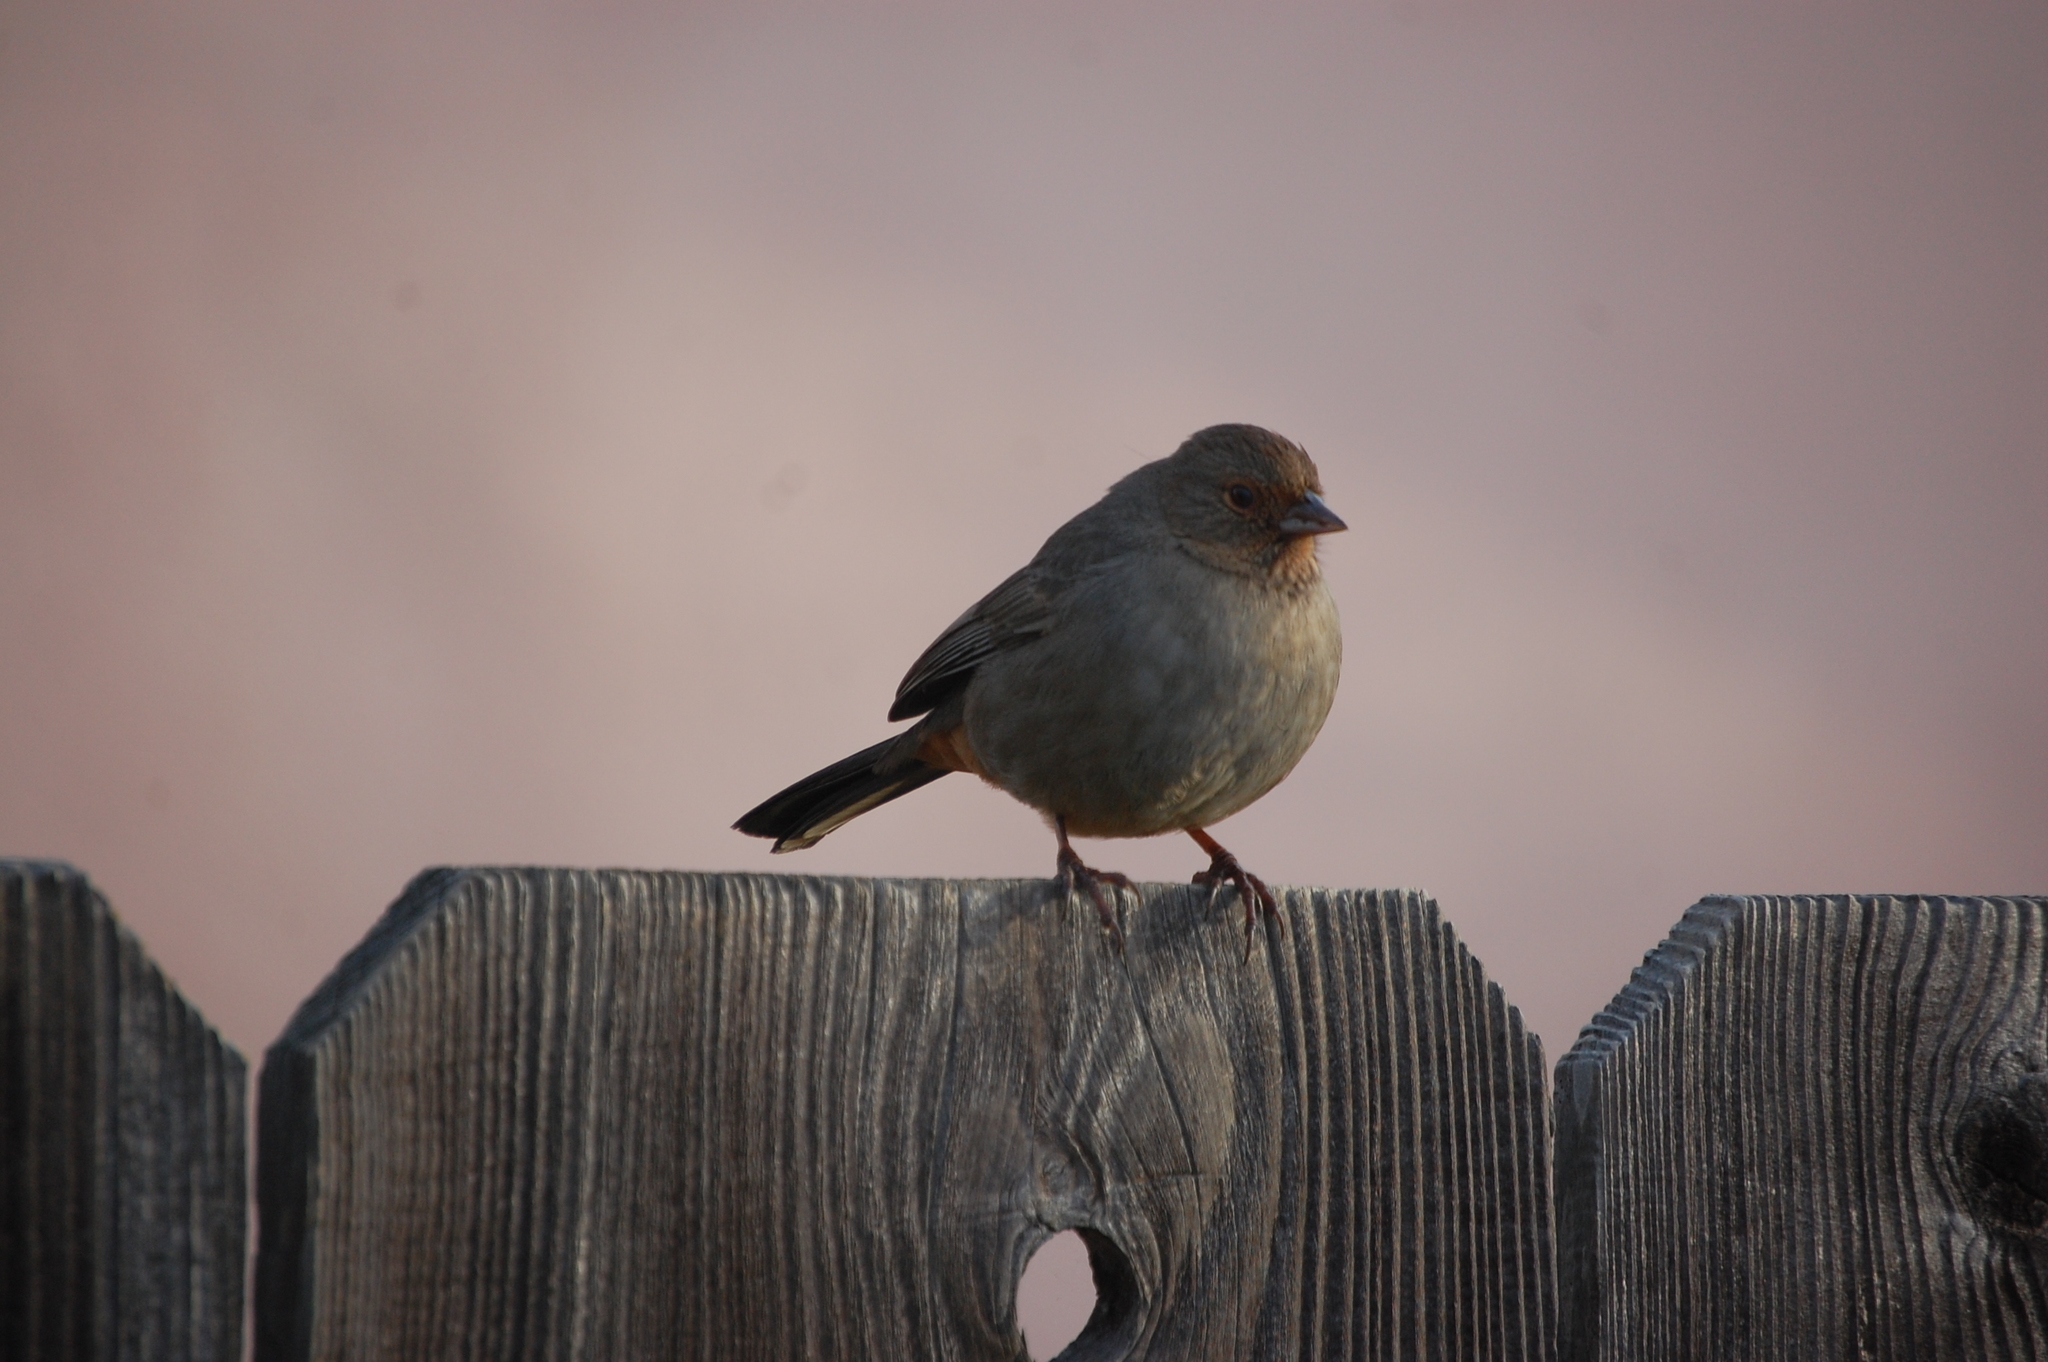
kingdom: Animalia
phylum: Chordata
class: Aves
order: Passeriformes
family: Passerellidae
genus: Melozone
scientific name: Melozone crissalis
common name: California towhee
